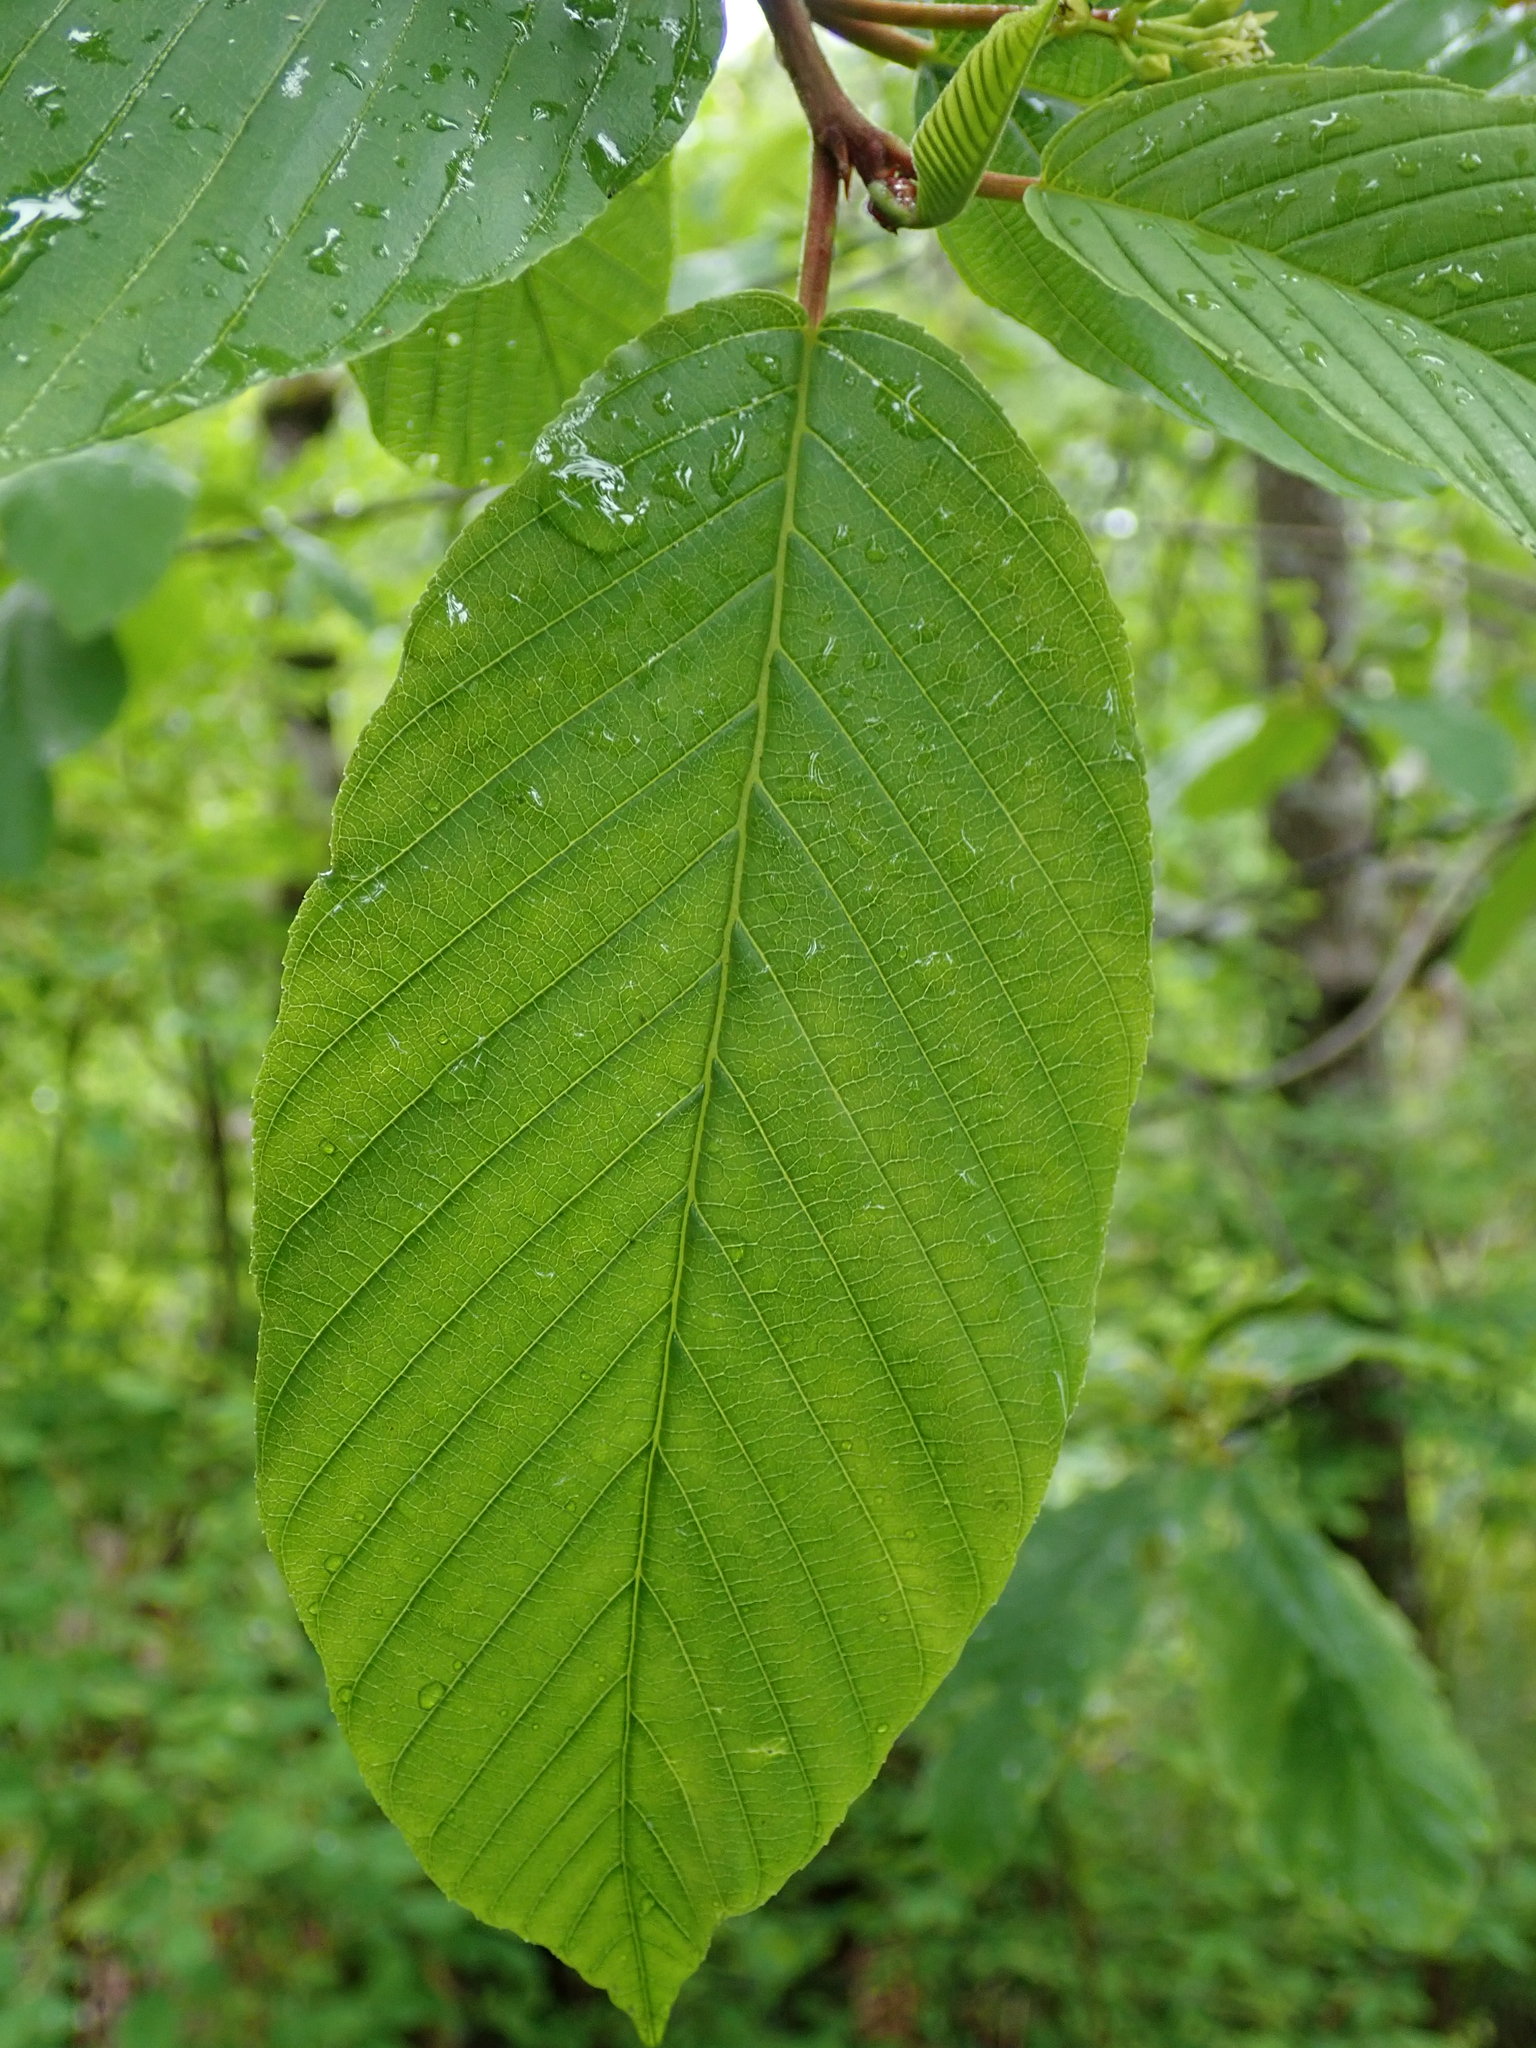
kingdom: Plantae
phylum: Tracheophyta
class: Magnoliopsida
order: Rosales
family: Rhamnaceae
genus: Frangula
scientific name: Frangula purshiana
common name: Cascara buckthorn
